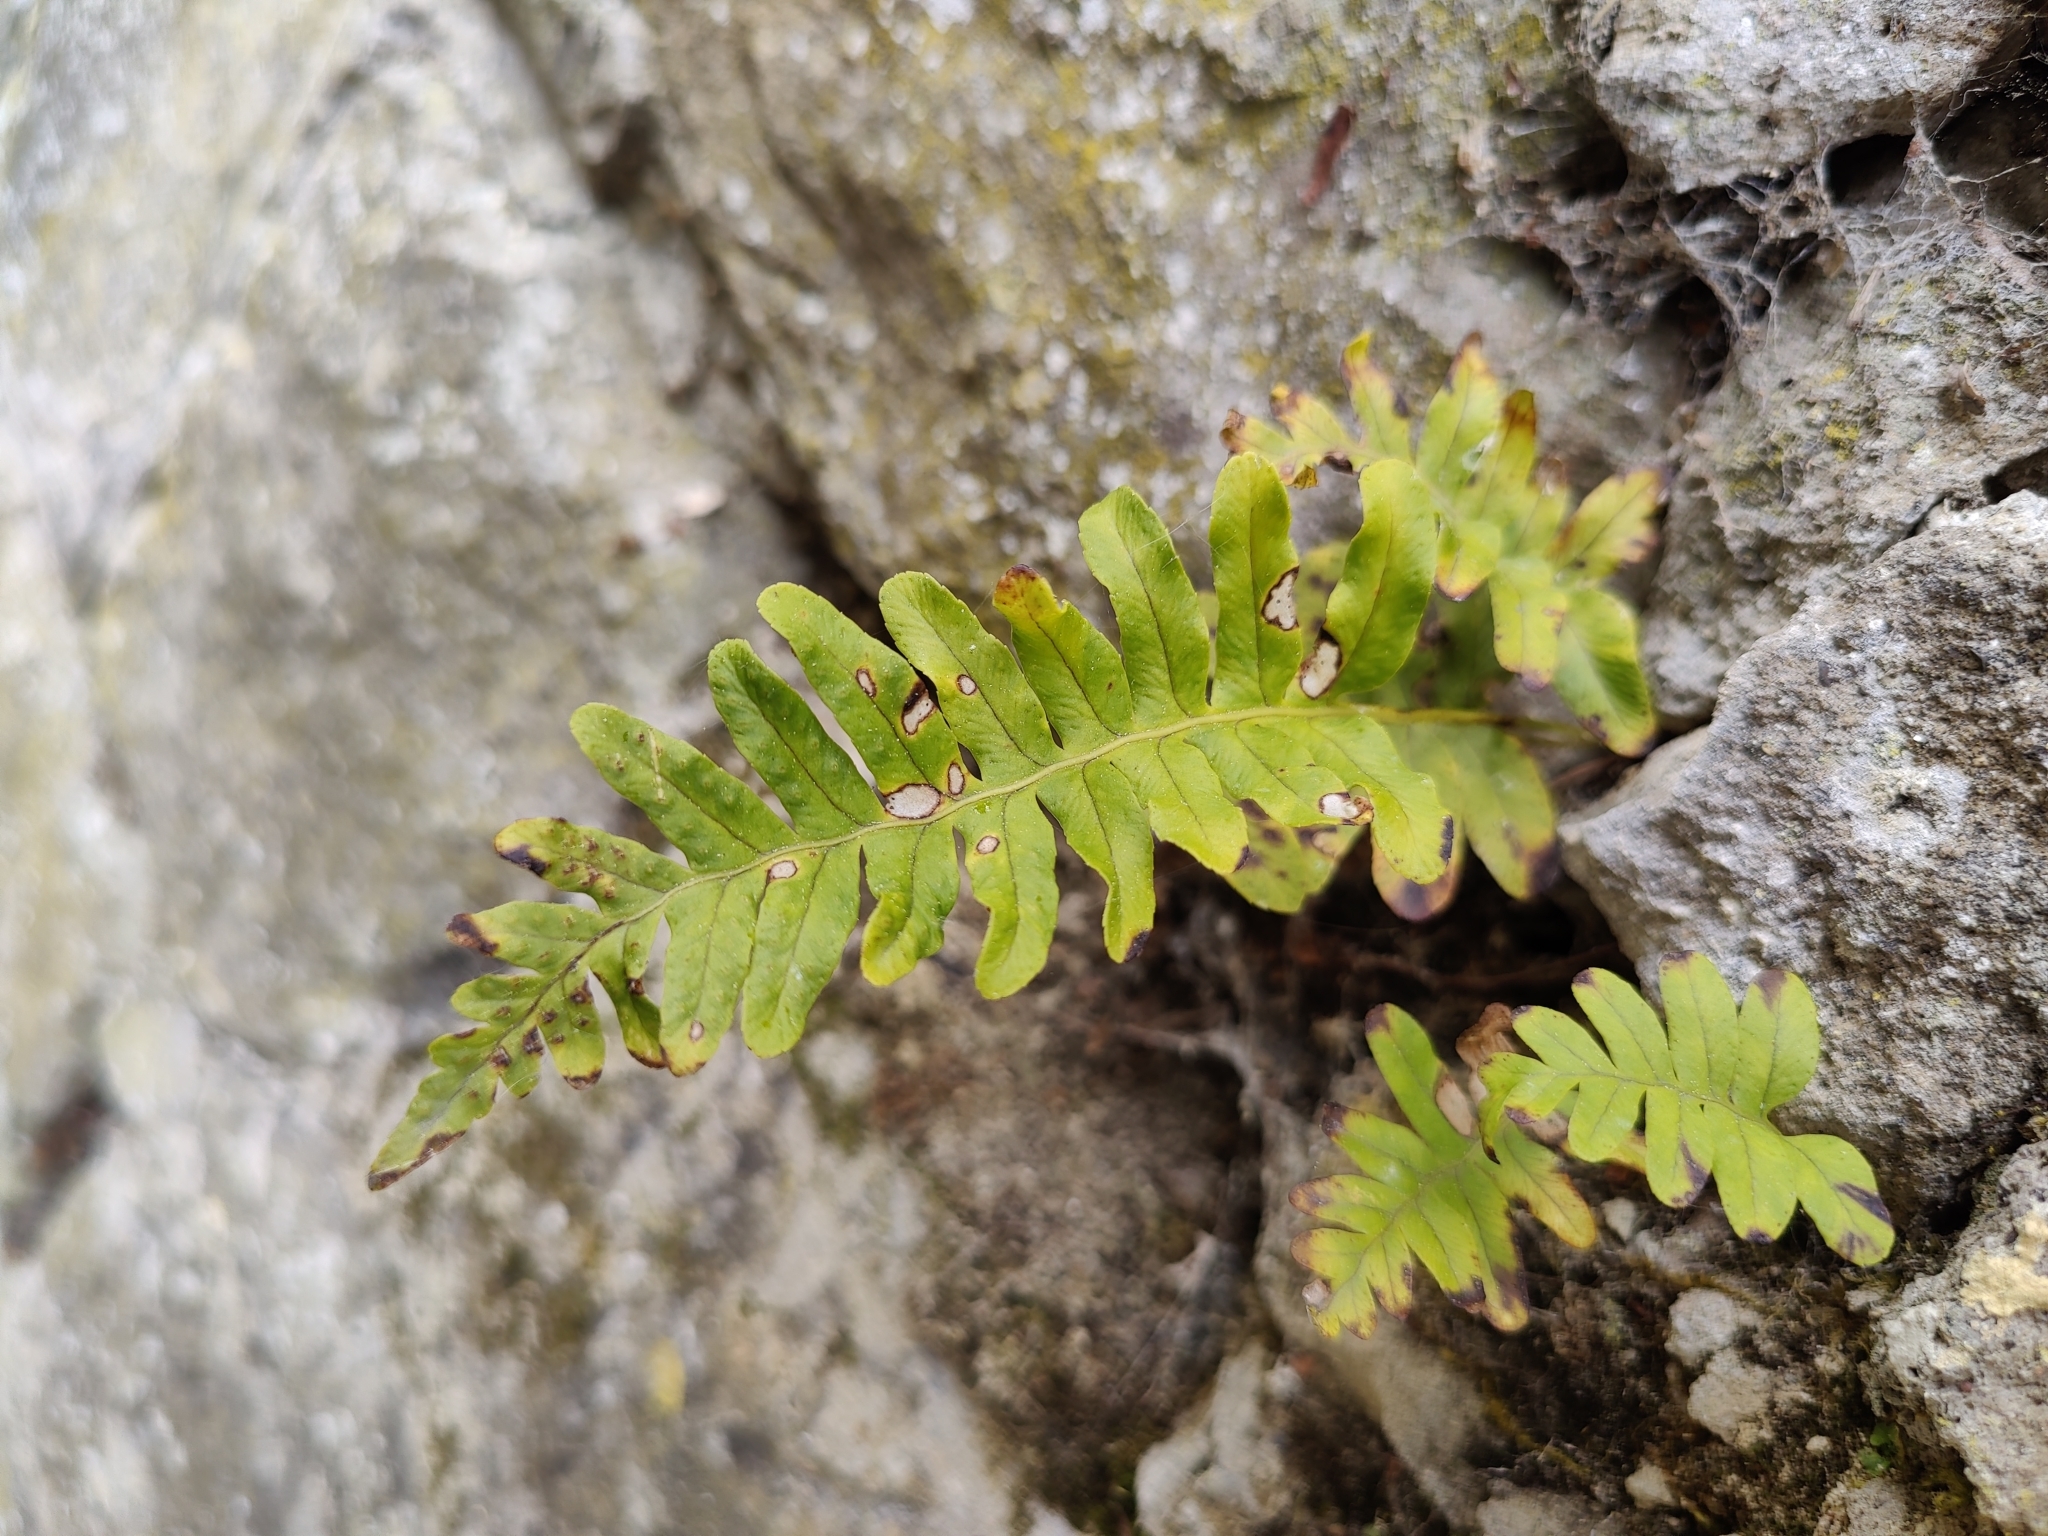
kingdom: Plantae
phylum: Tracheophyta
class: Polypodiopsida
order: Polypodiales
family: Polypodiaceae
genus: Polypodium
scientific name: Polypodium vulgare
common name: Common polypody
